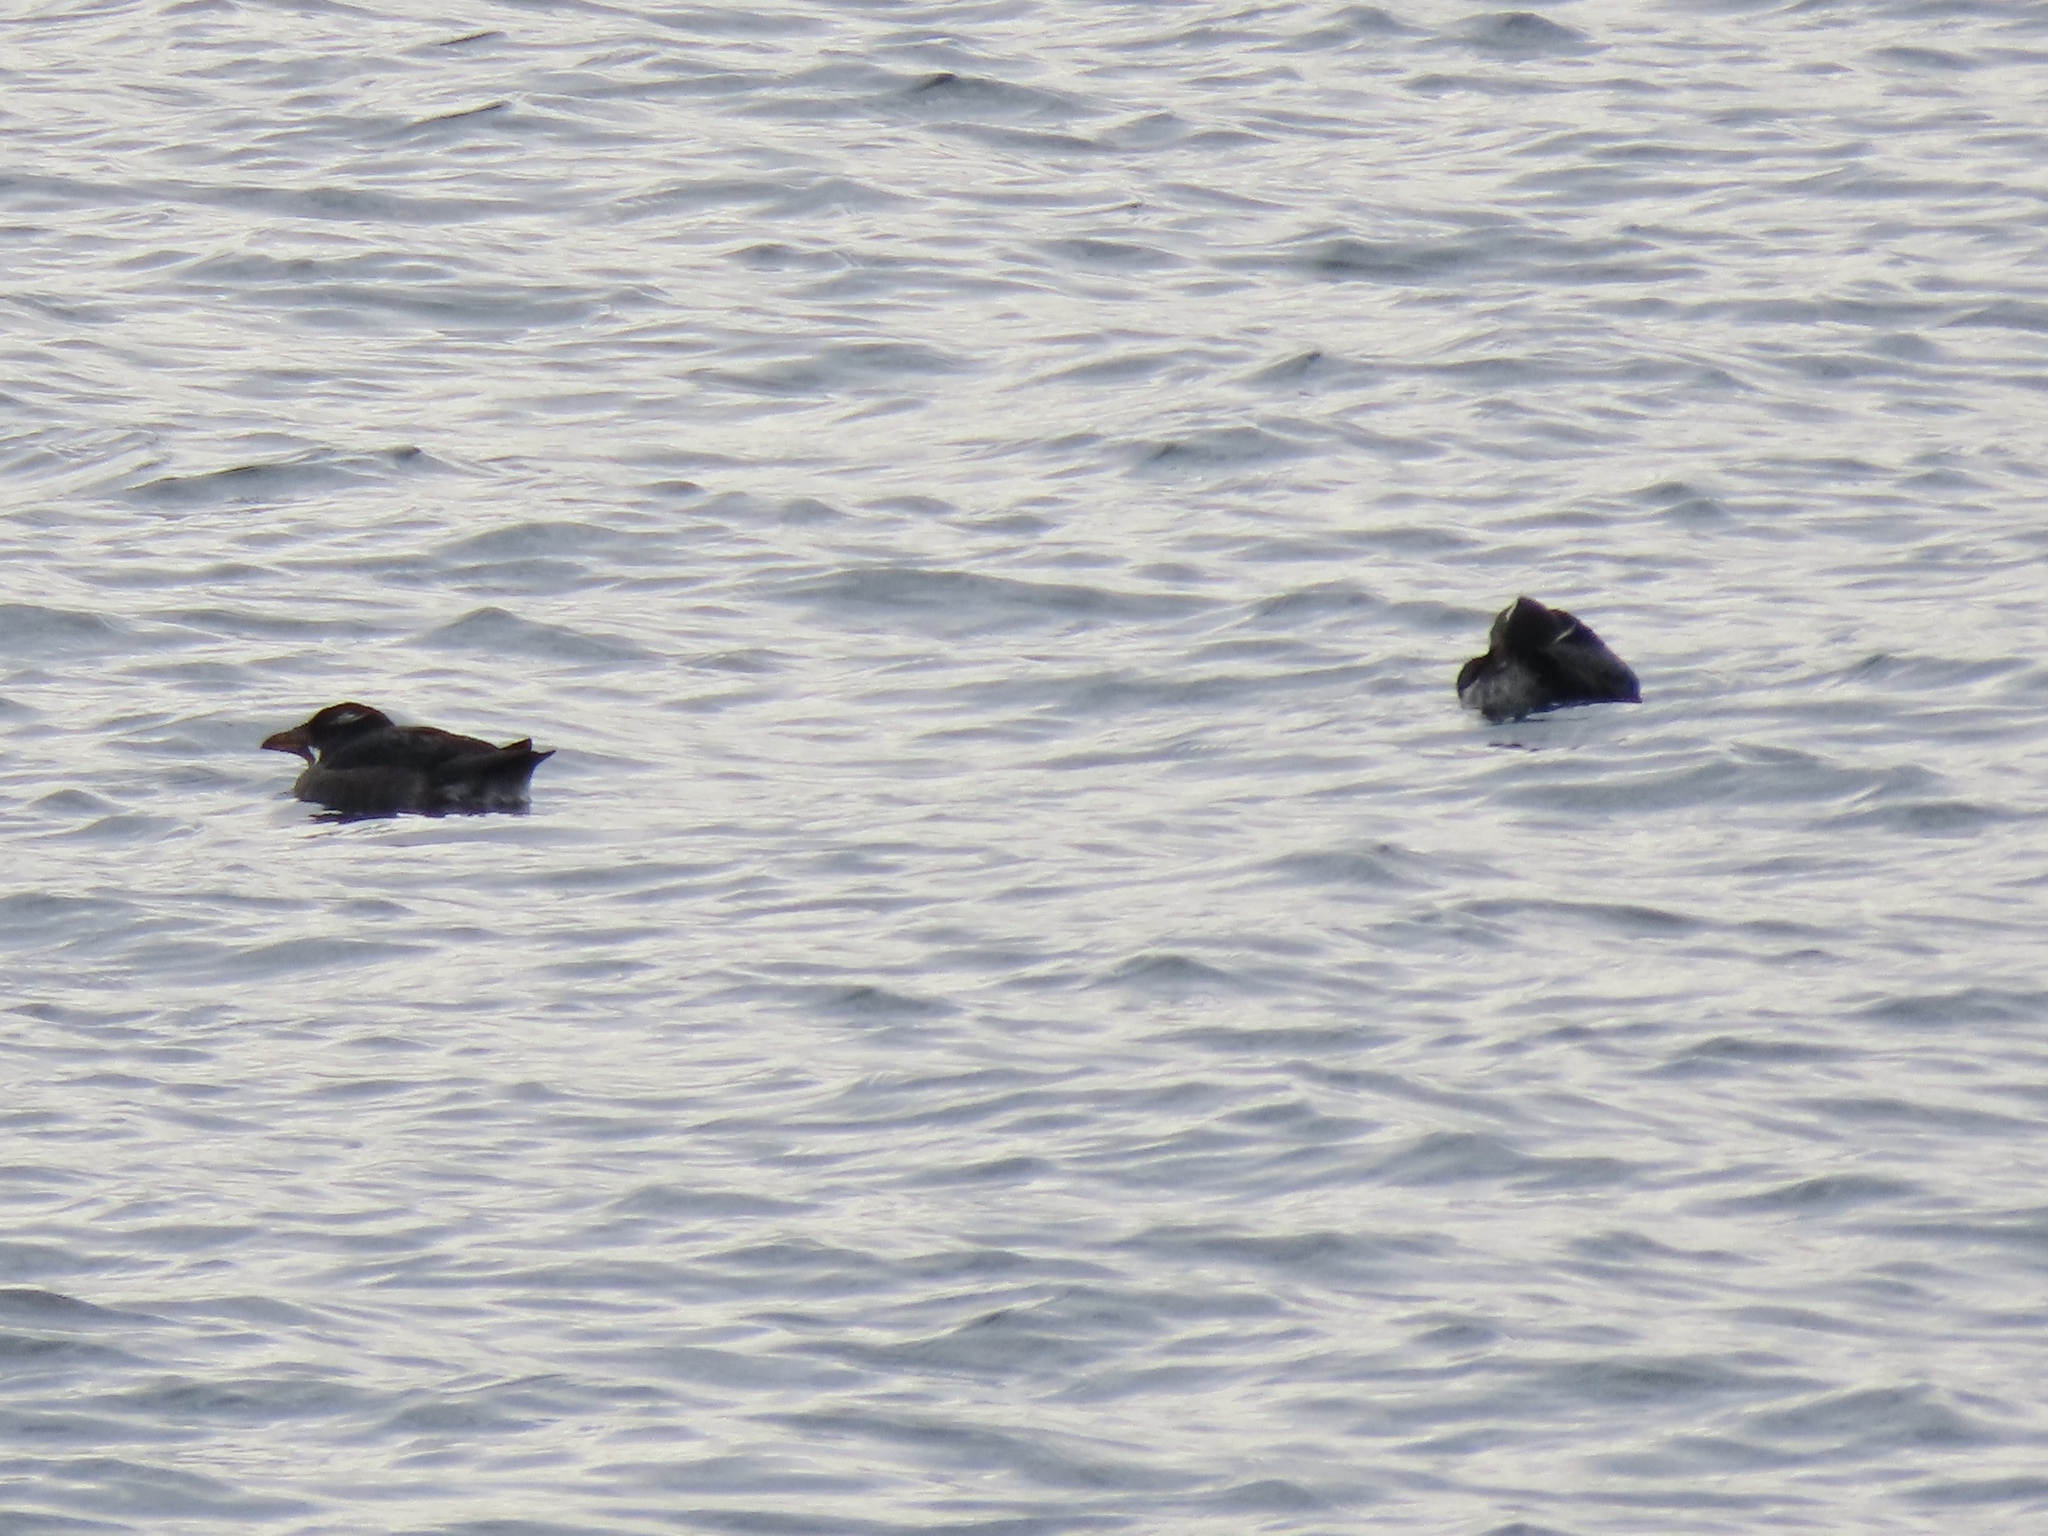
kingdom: Animalia
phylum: Chordata
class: Aves
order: Charadriiformes
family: Alcidae
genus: Cerorhinca
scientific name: Cerorhinca monocerata
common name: Rhinoceros auklet
